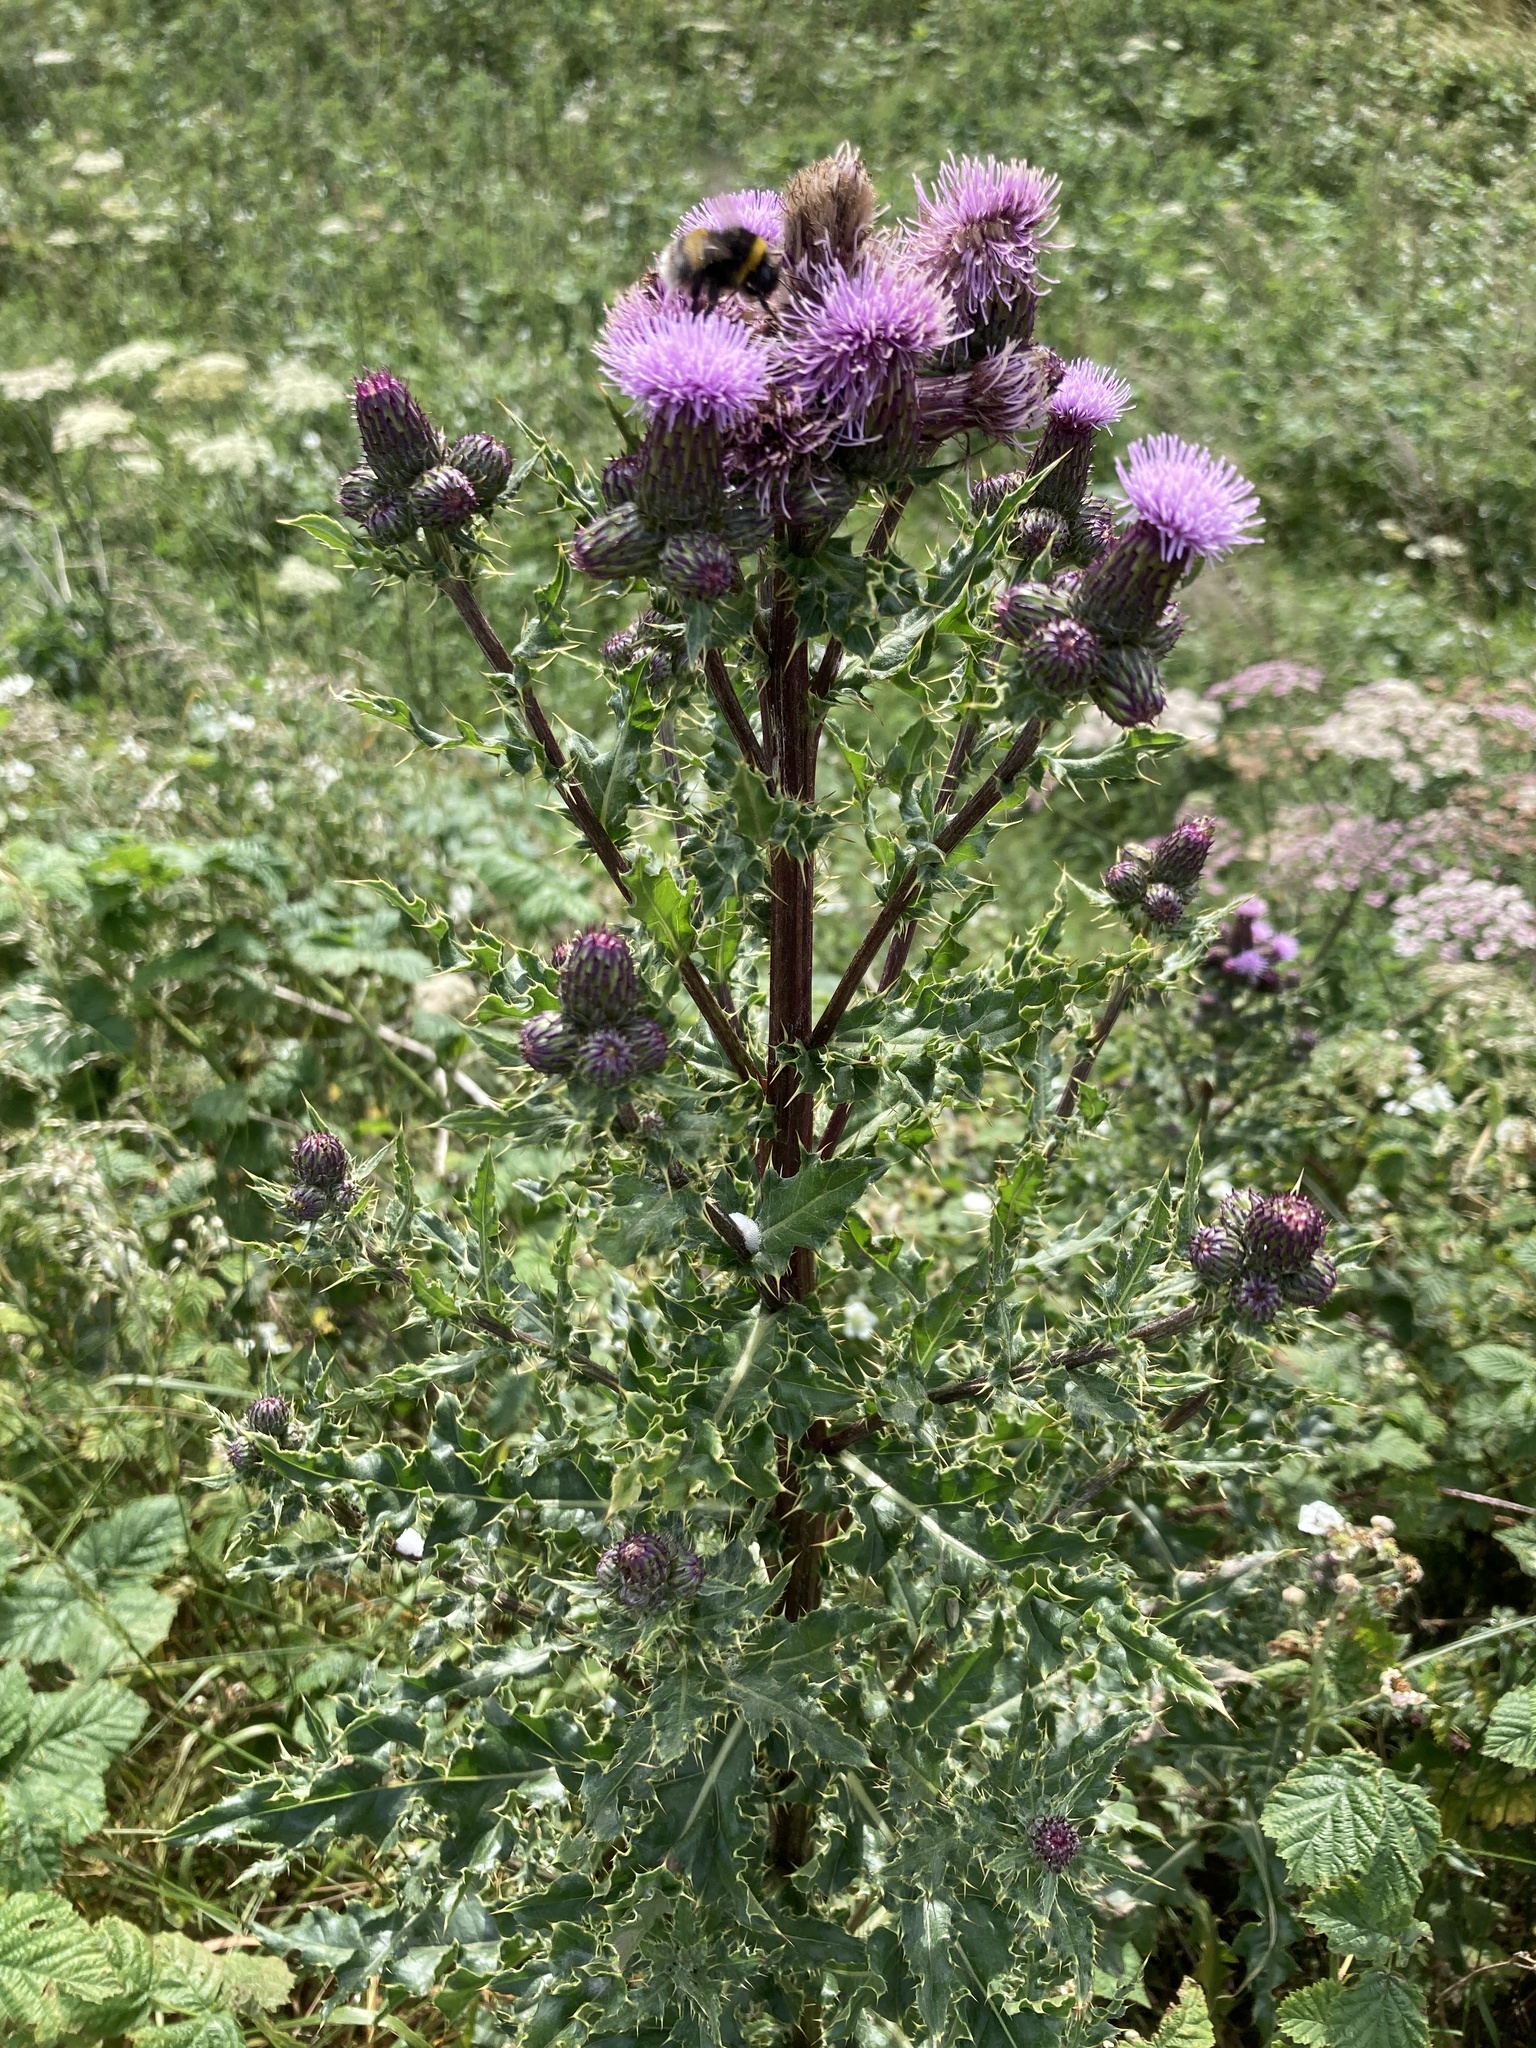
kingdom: Plantae
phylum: Tracheophyta
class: Magnoliopsida
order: Asterales
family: Asteraceae
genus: Cirsium
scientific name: Cirsium arvense
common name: Creeping thistle
